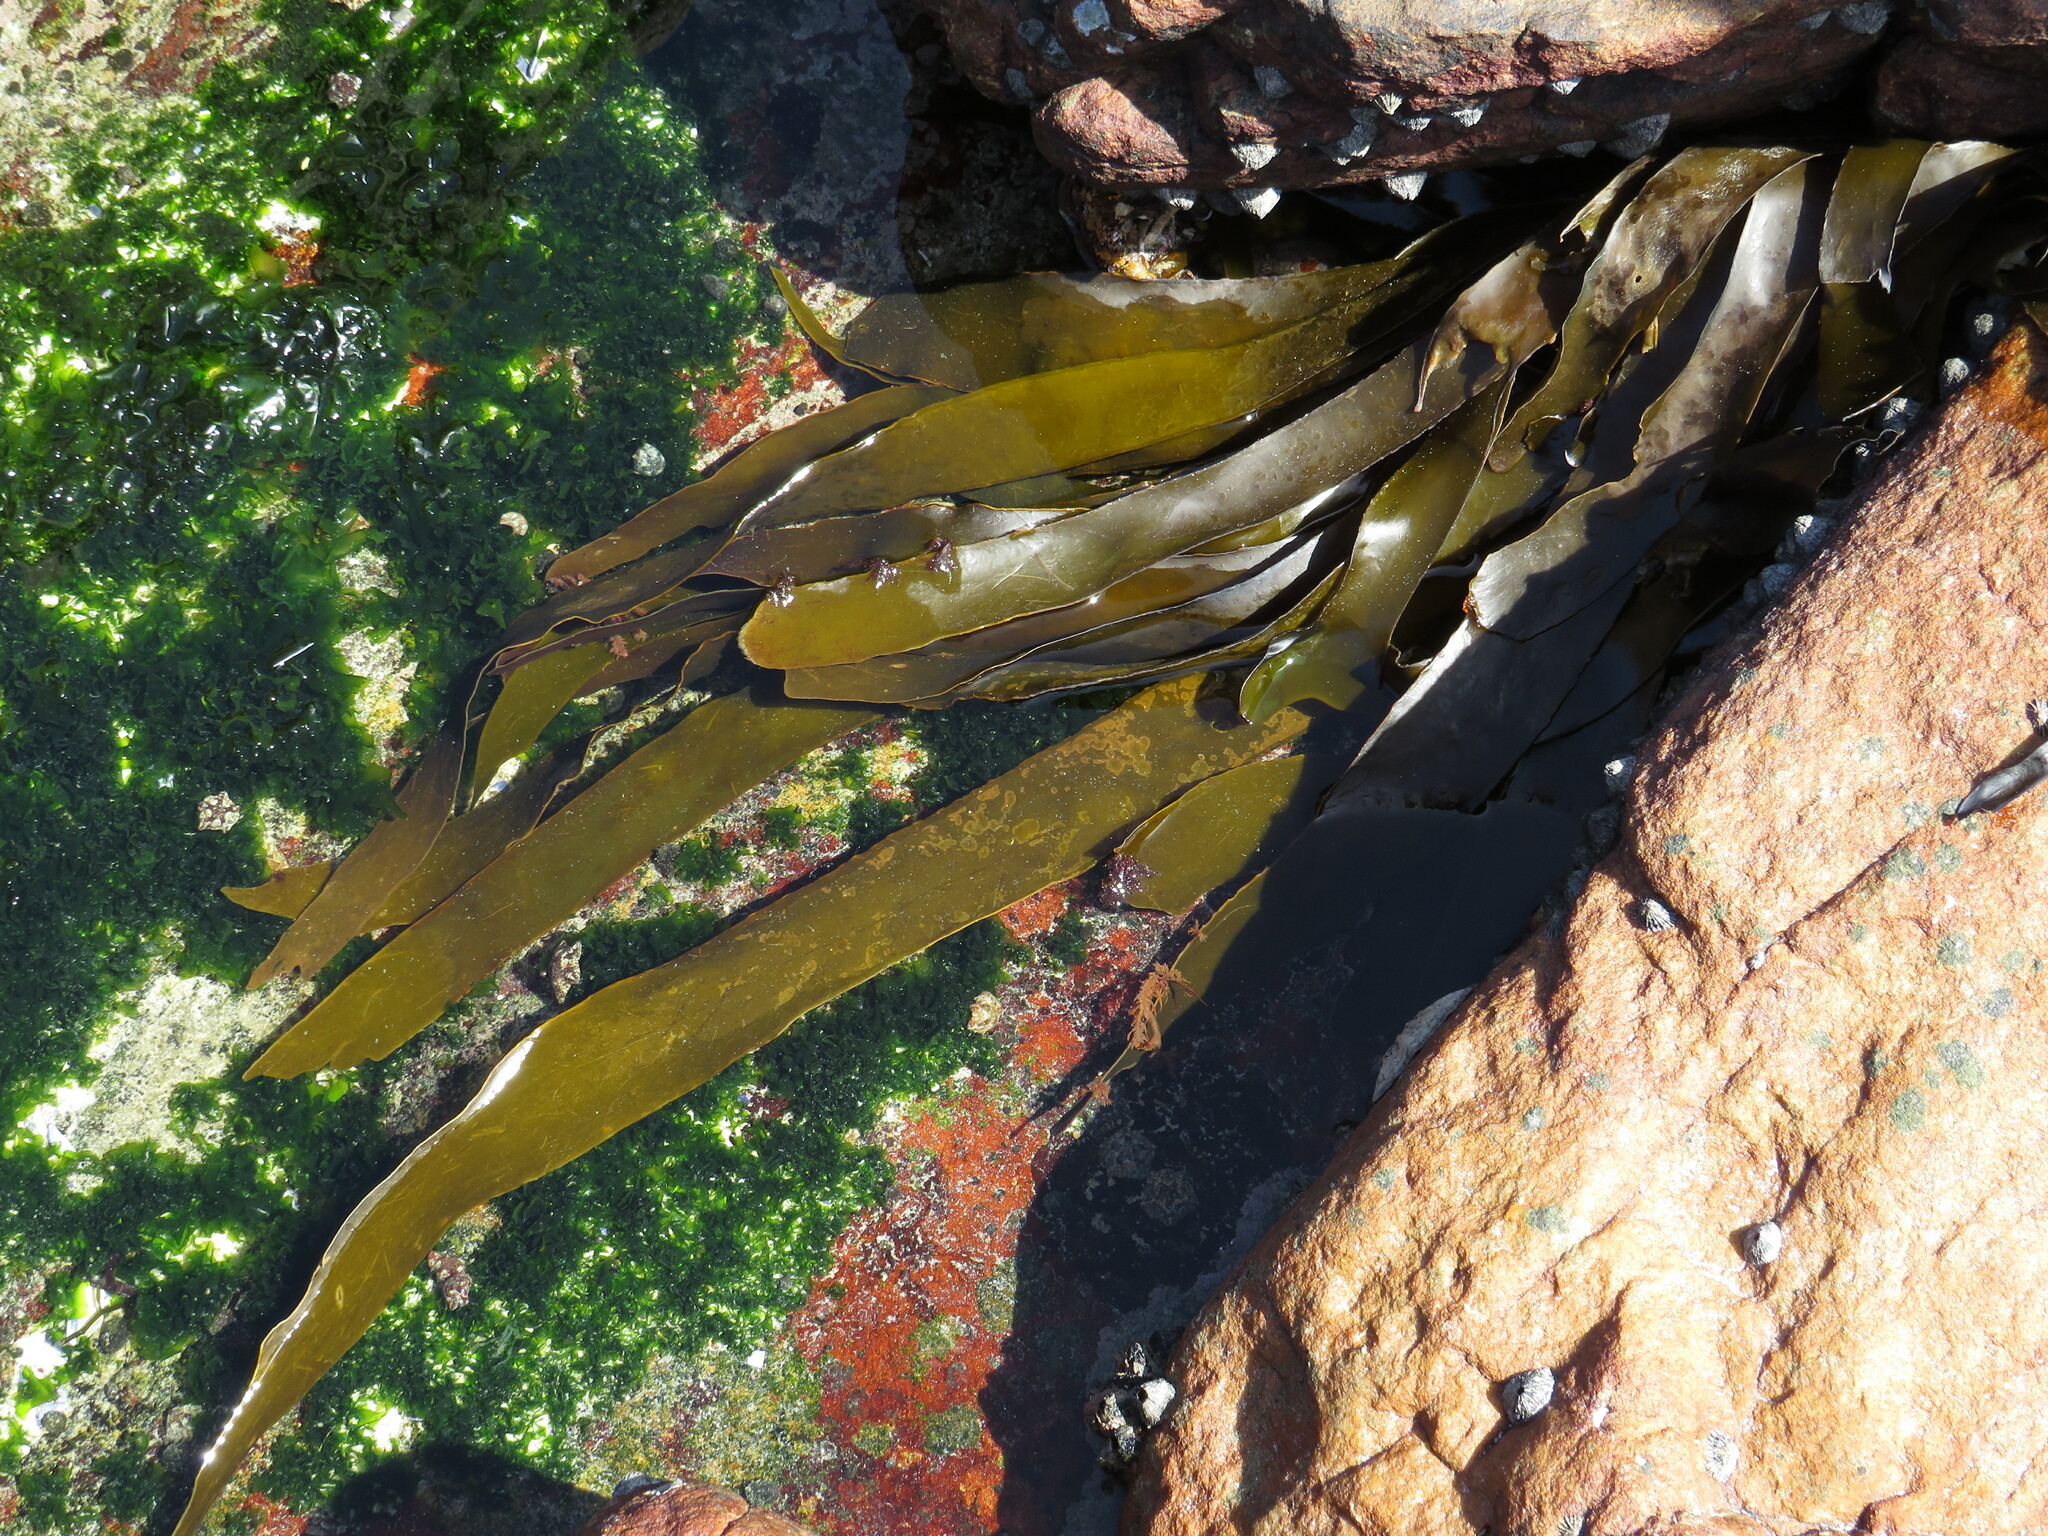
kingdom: Chromista
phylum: Ochrophyta
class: Phaeophyceae
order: Laminariales
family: Lessoniaceae
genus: Ecklonia
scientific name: Ecklonia
